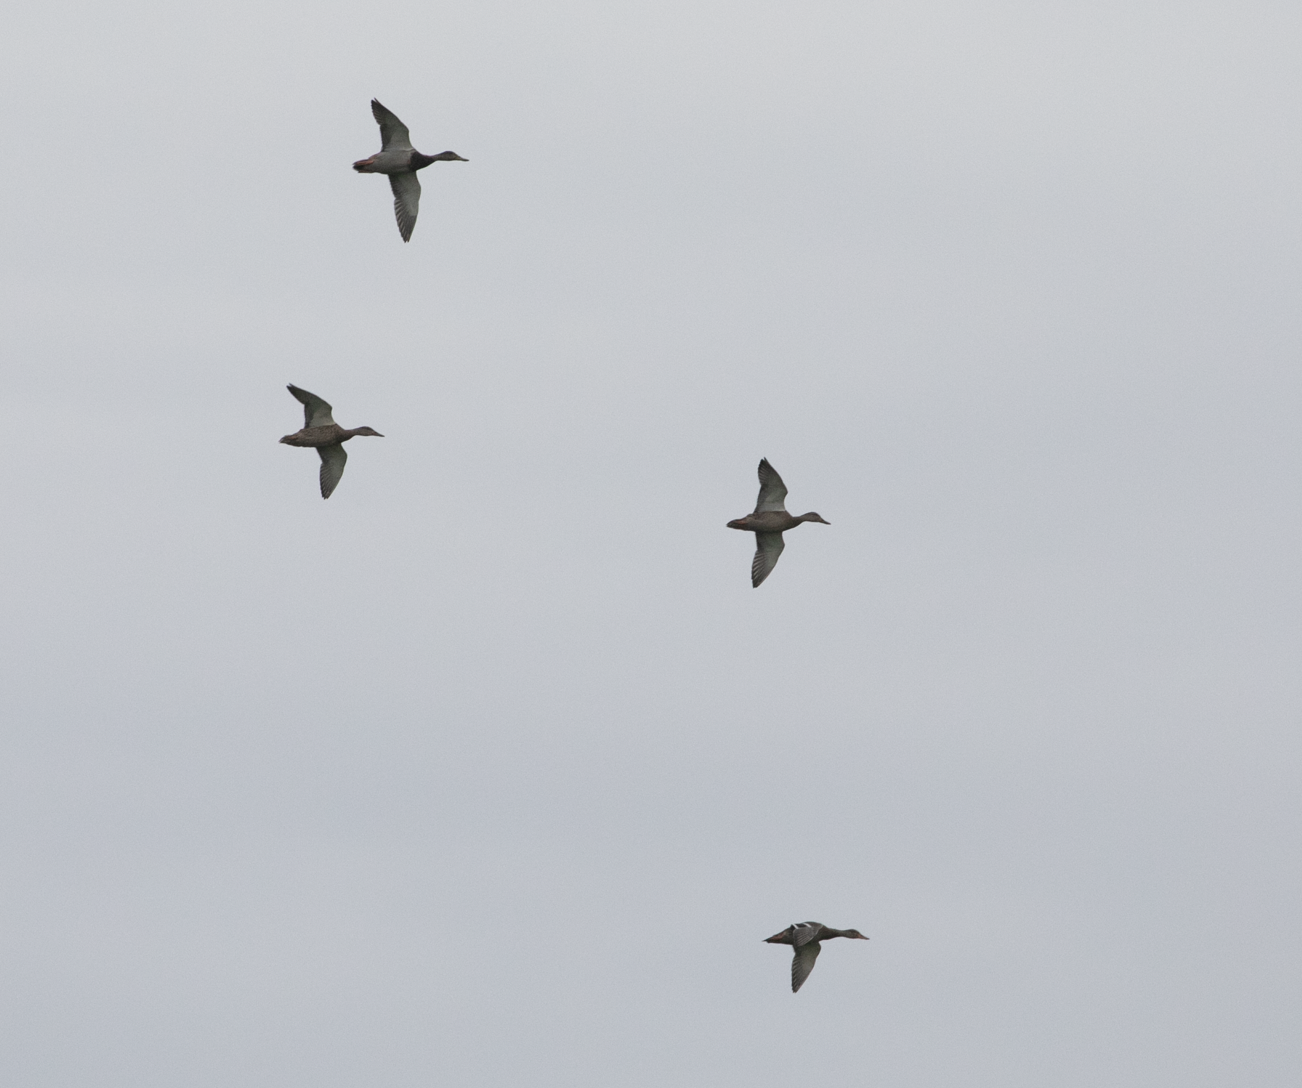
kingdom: Animalia
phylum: Chordata
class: Aves
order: Anseriformes
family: Anatidae
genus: Anas
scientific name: Anas platyrhynchos
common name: Mallard
